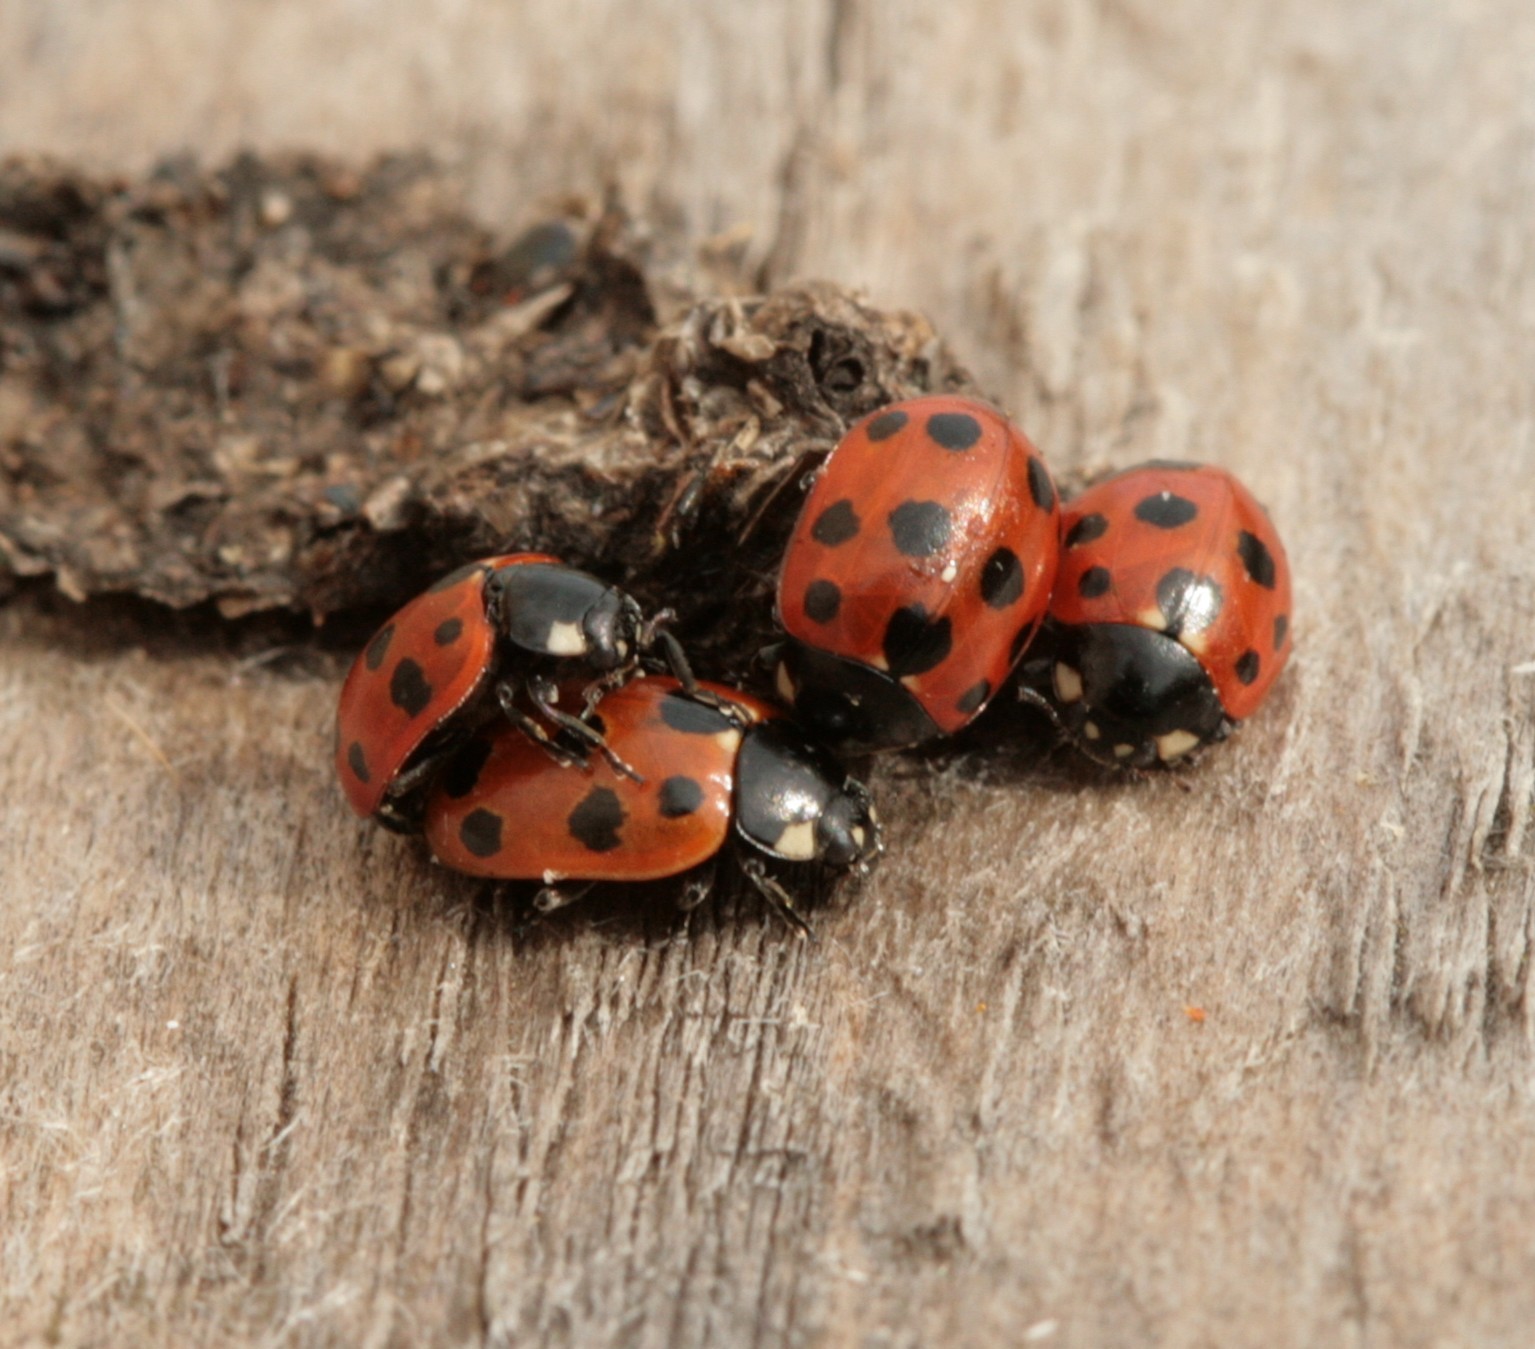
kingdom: Animalia
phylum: Arthropoda
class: Insecta
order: Coleoptera
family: Coccinellidae
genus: Coccinella
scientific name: Coccinella undecimpunctata
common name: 11-spot ladybird
